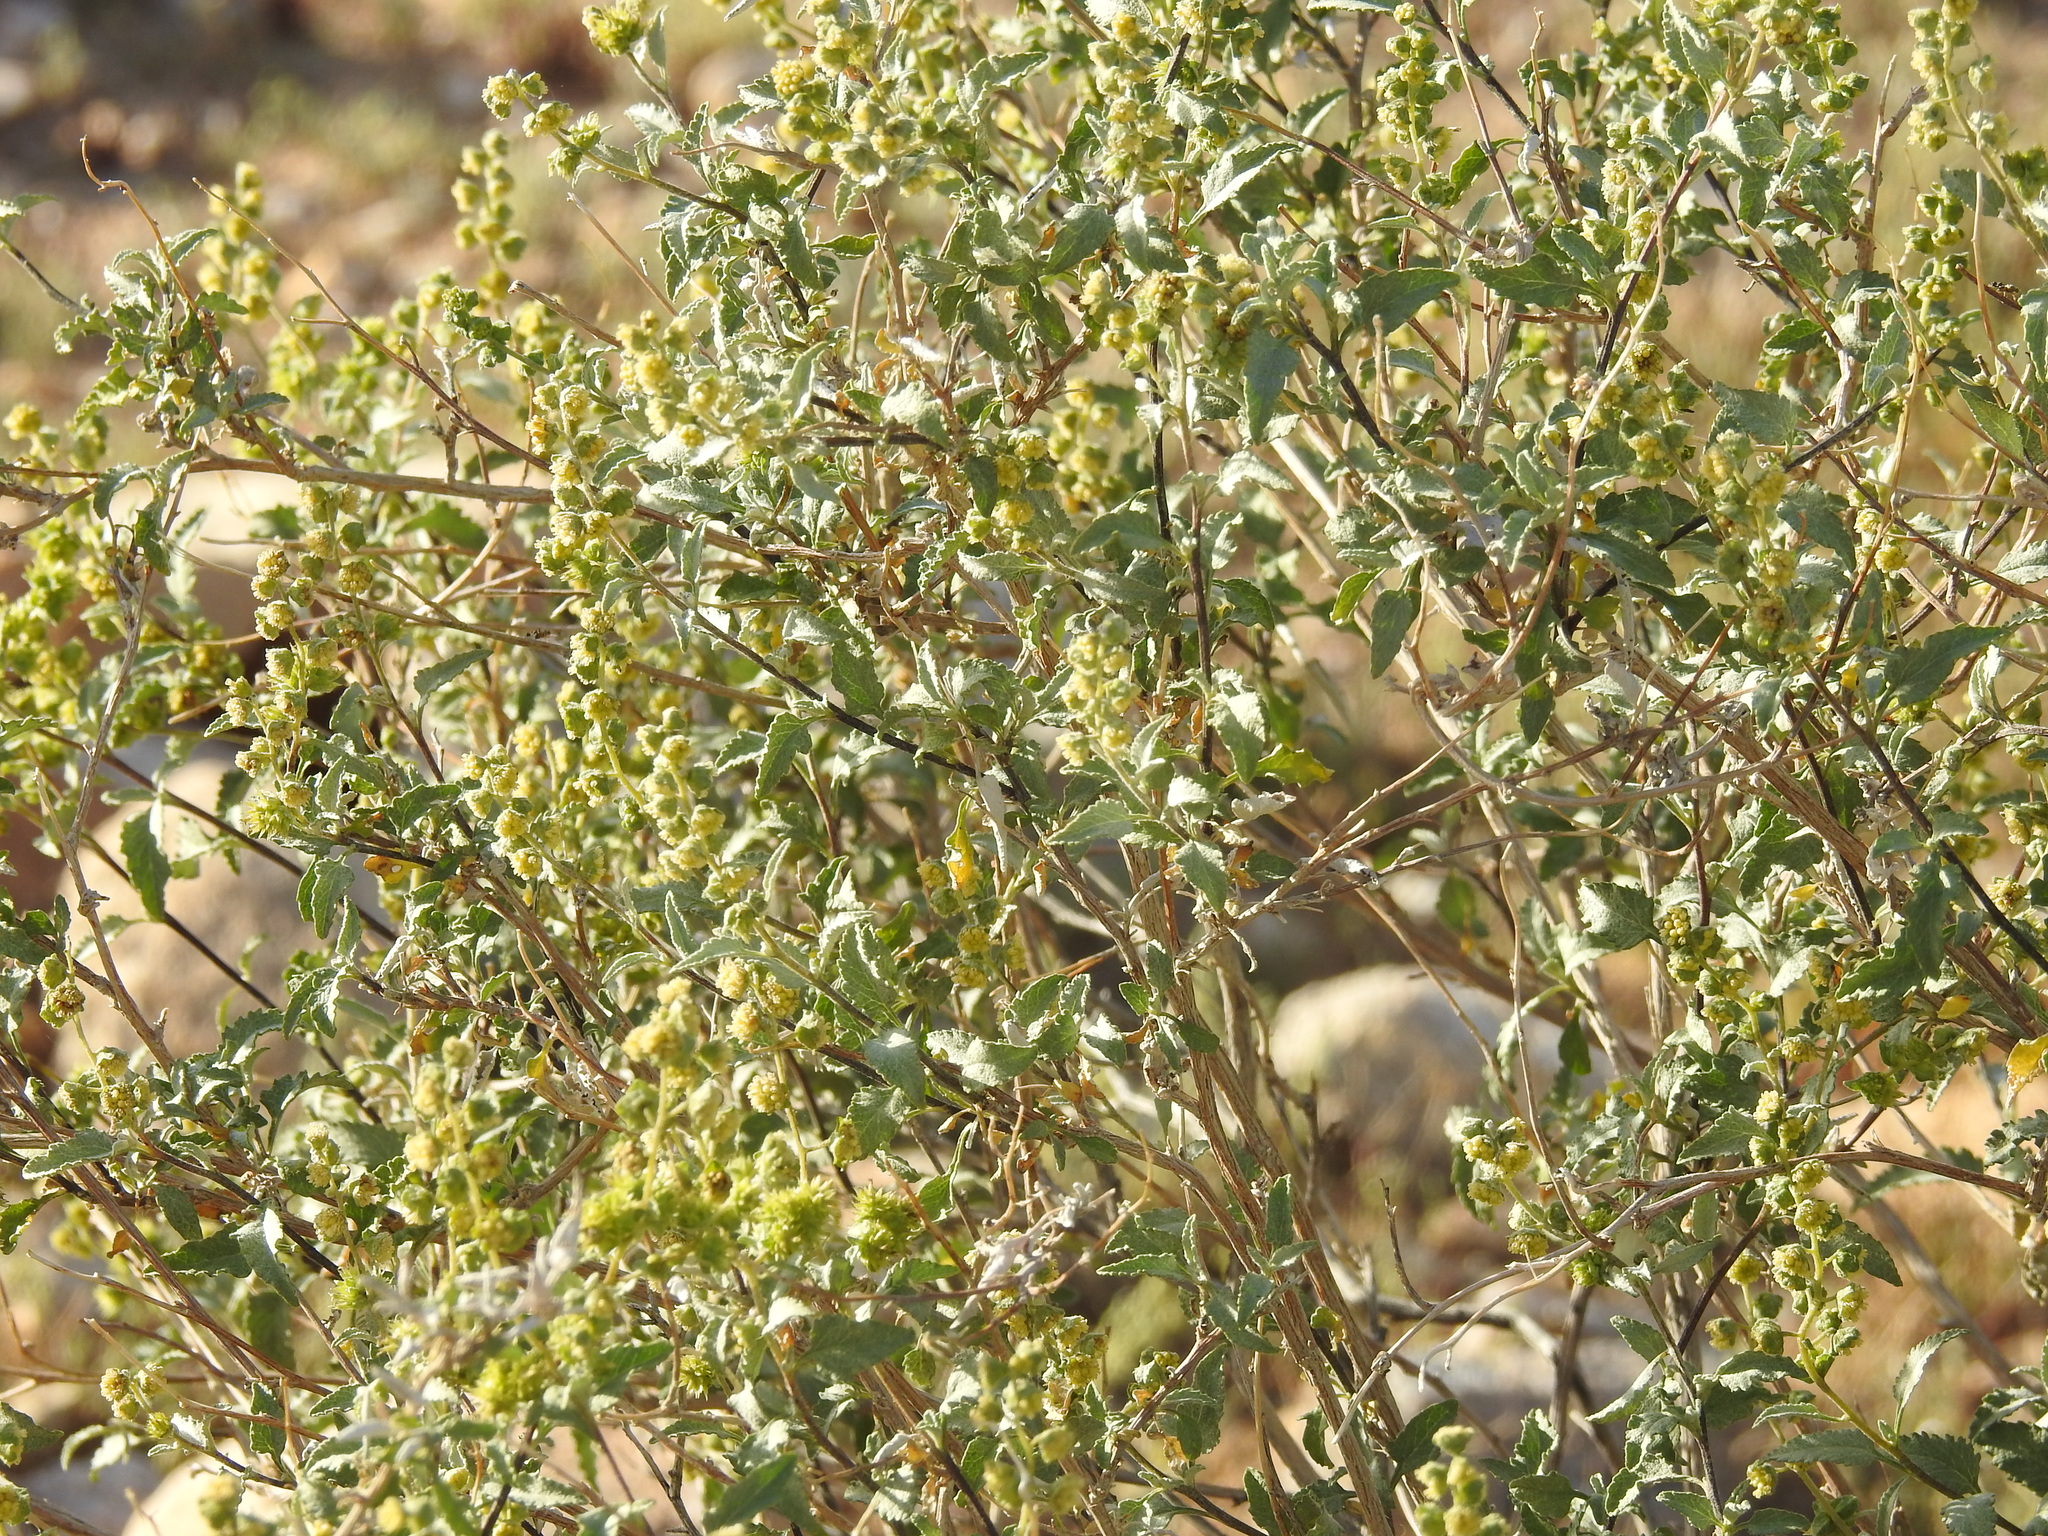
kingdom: Plantae
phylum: Tracheophyta
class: Magnoliopsida
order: Asterales
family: Asteraceae
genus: Ambrosia
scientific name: Ambrosia deltoidea
